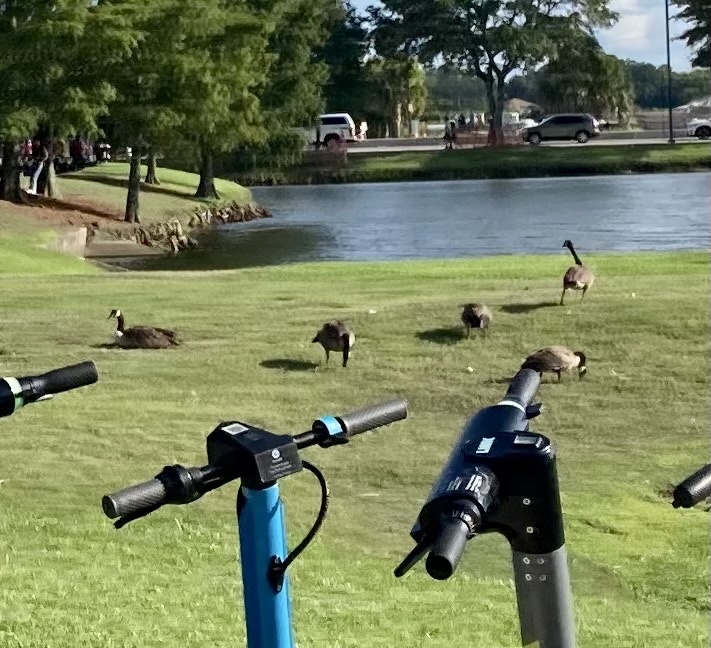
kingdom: Animalia
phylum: Chordata
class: Aves
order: Anseriformes
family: Anatidae
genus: Branta
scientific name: Branta canadensis
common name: Canada goose
